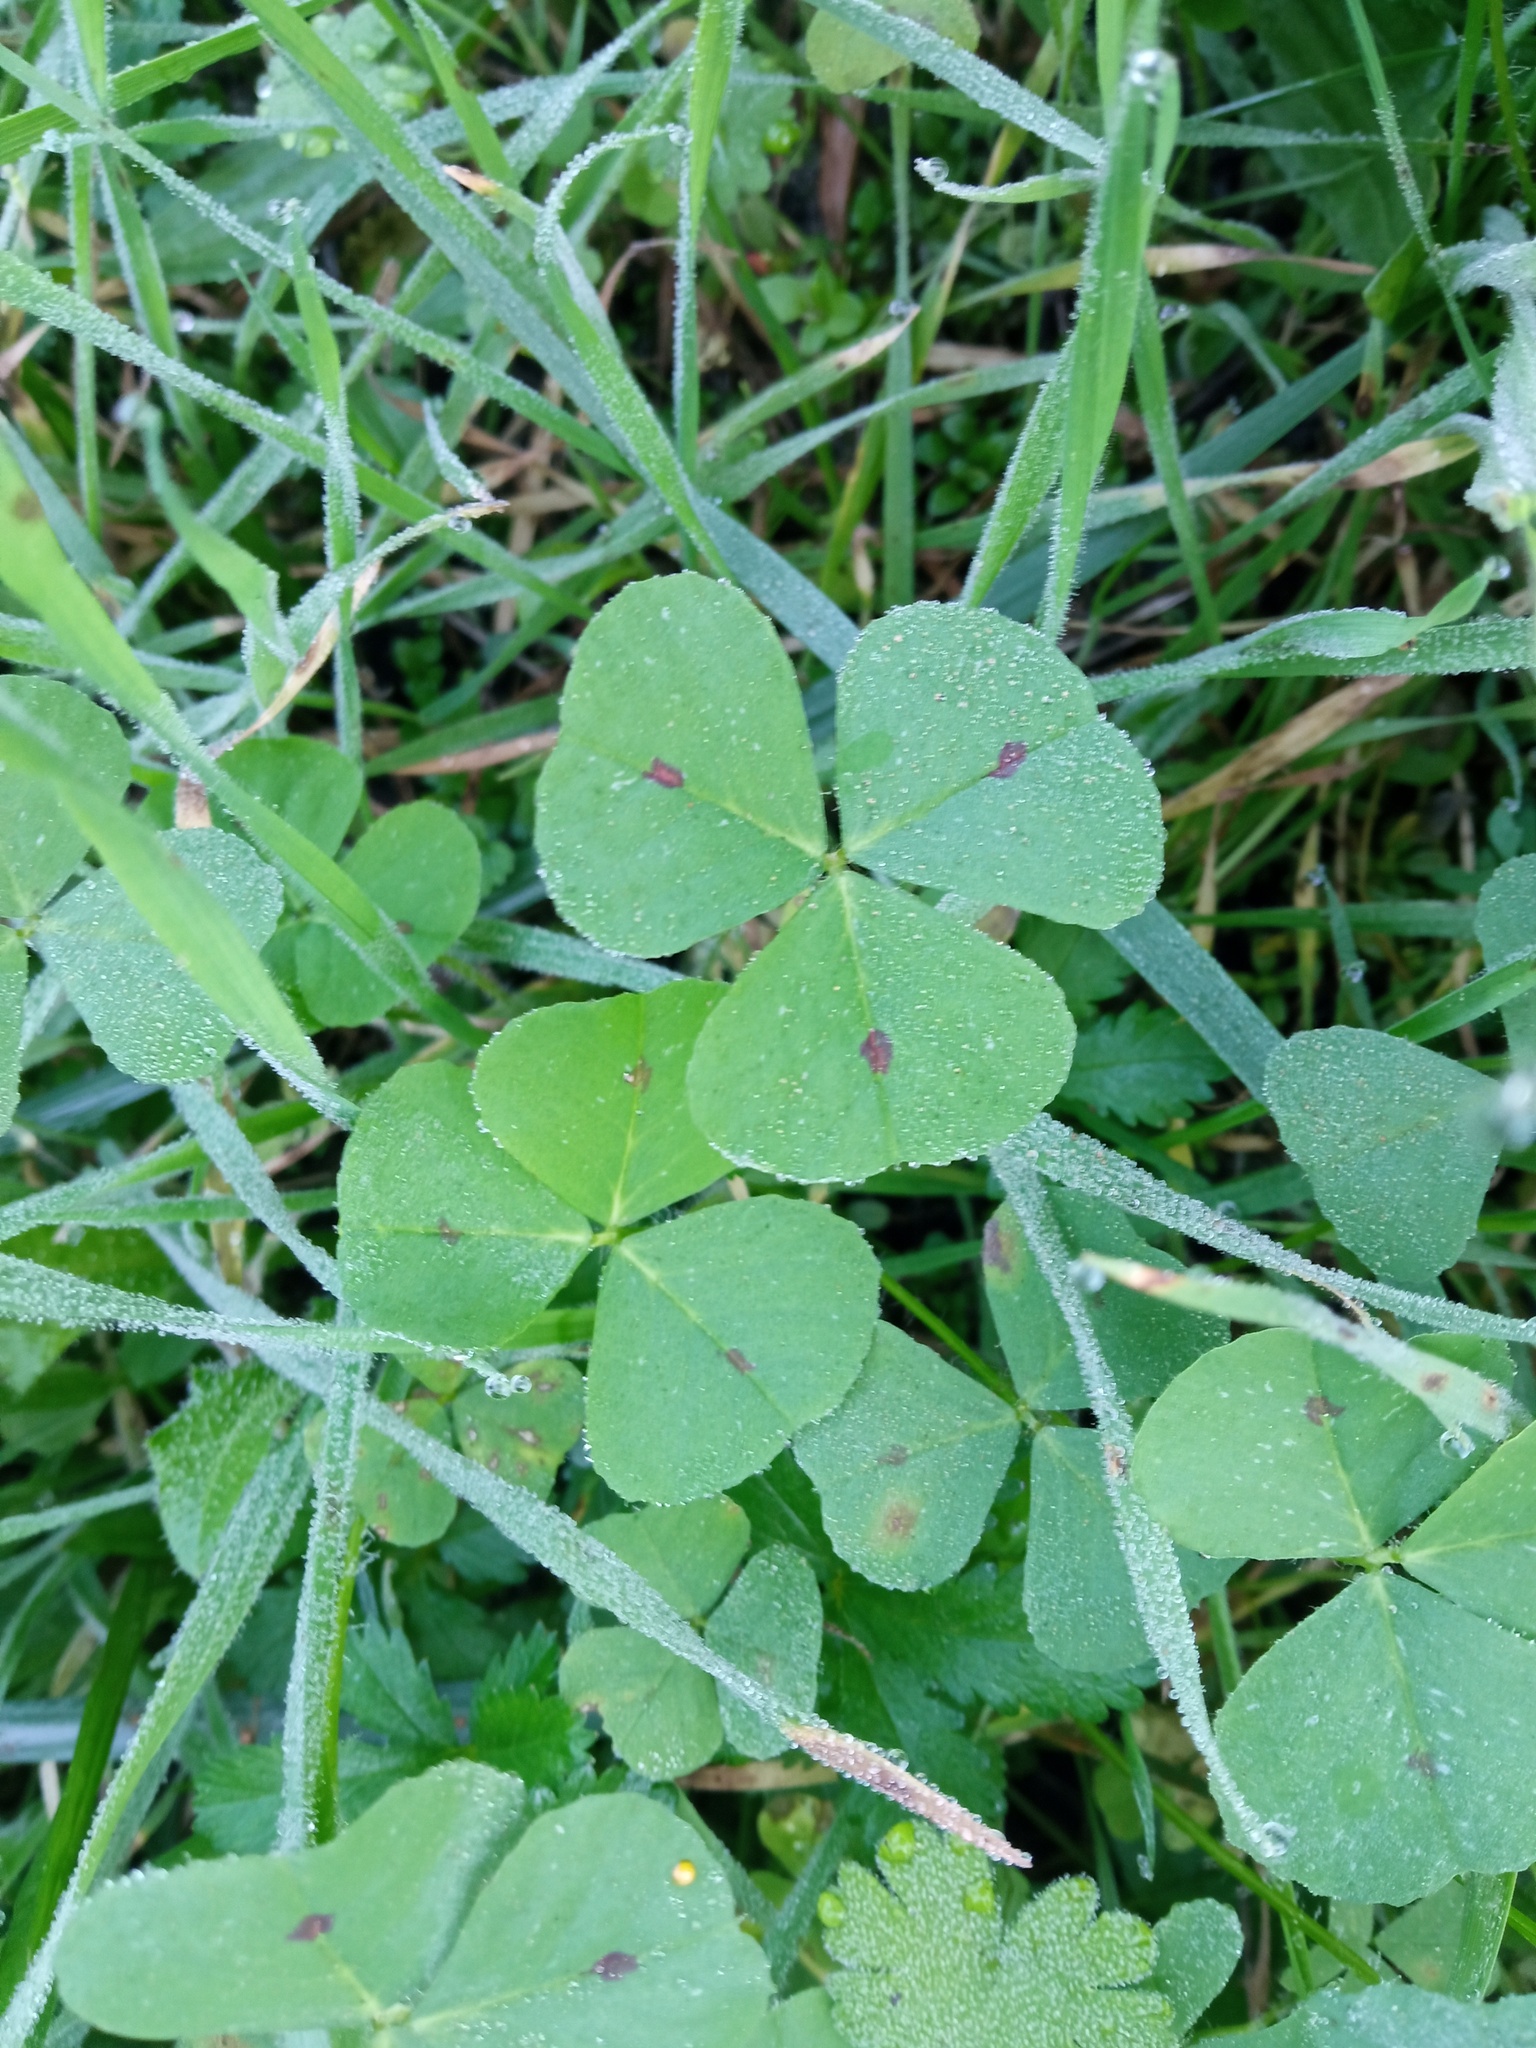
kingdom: Plantae
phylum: Tracheophyta
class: Magnoliopsida
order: Fabales
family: Fabaceae
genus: Medicago
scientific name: Medicago arabica
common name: Spotted medick
